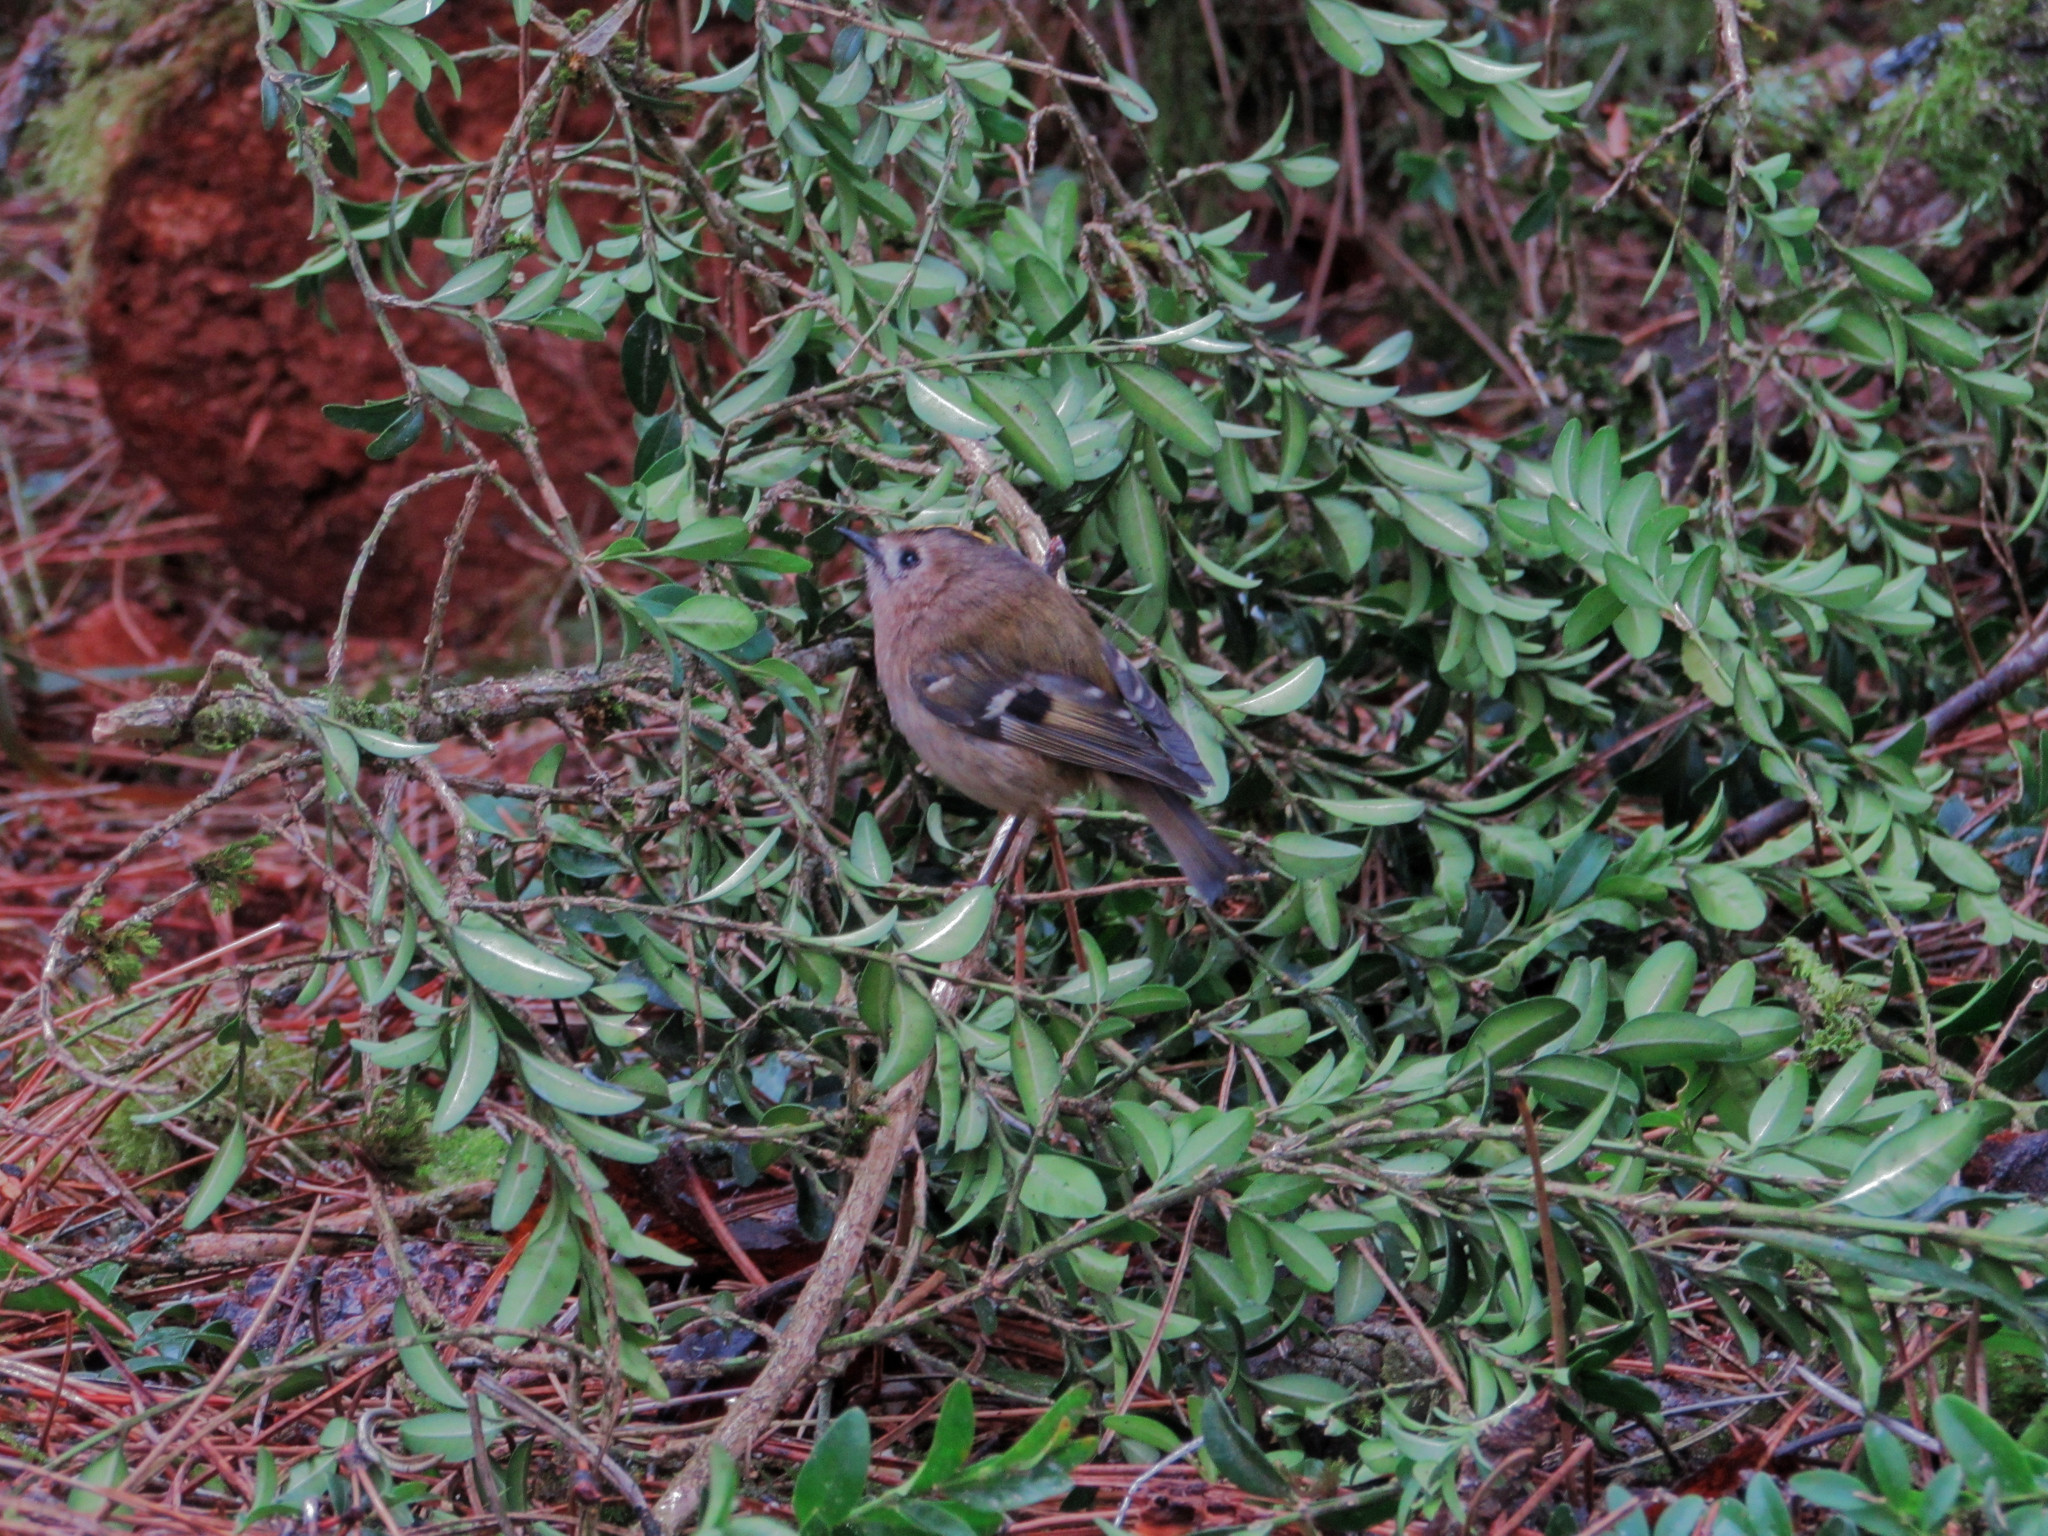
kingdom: Animalia
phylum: Chordata
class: Aves
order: Passeriformes
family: Regulidae
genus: Regulus
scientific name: Regulus regulus
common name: Goldcrest
